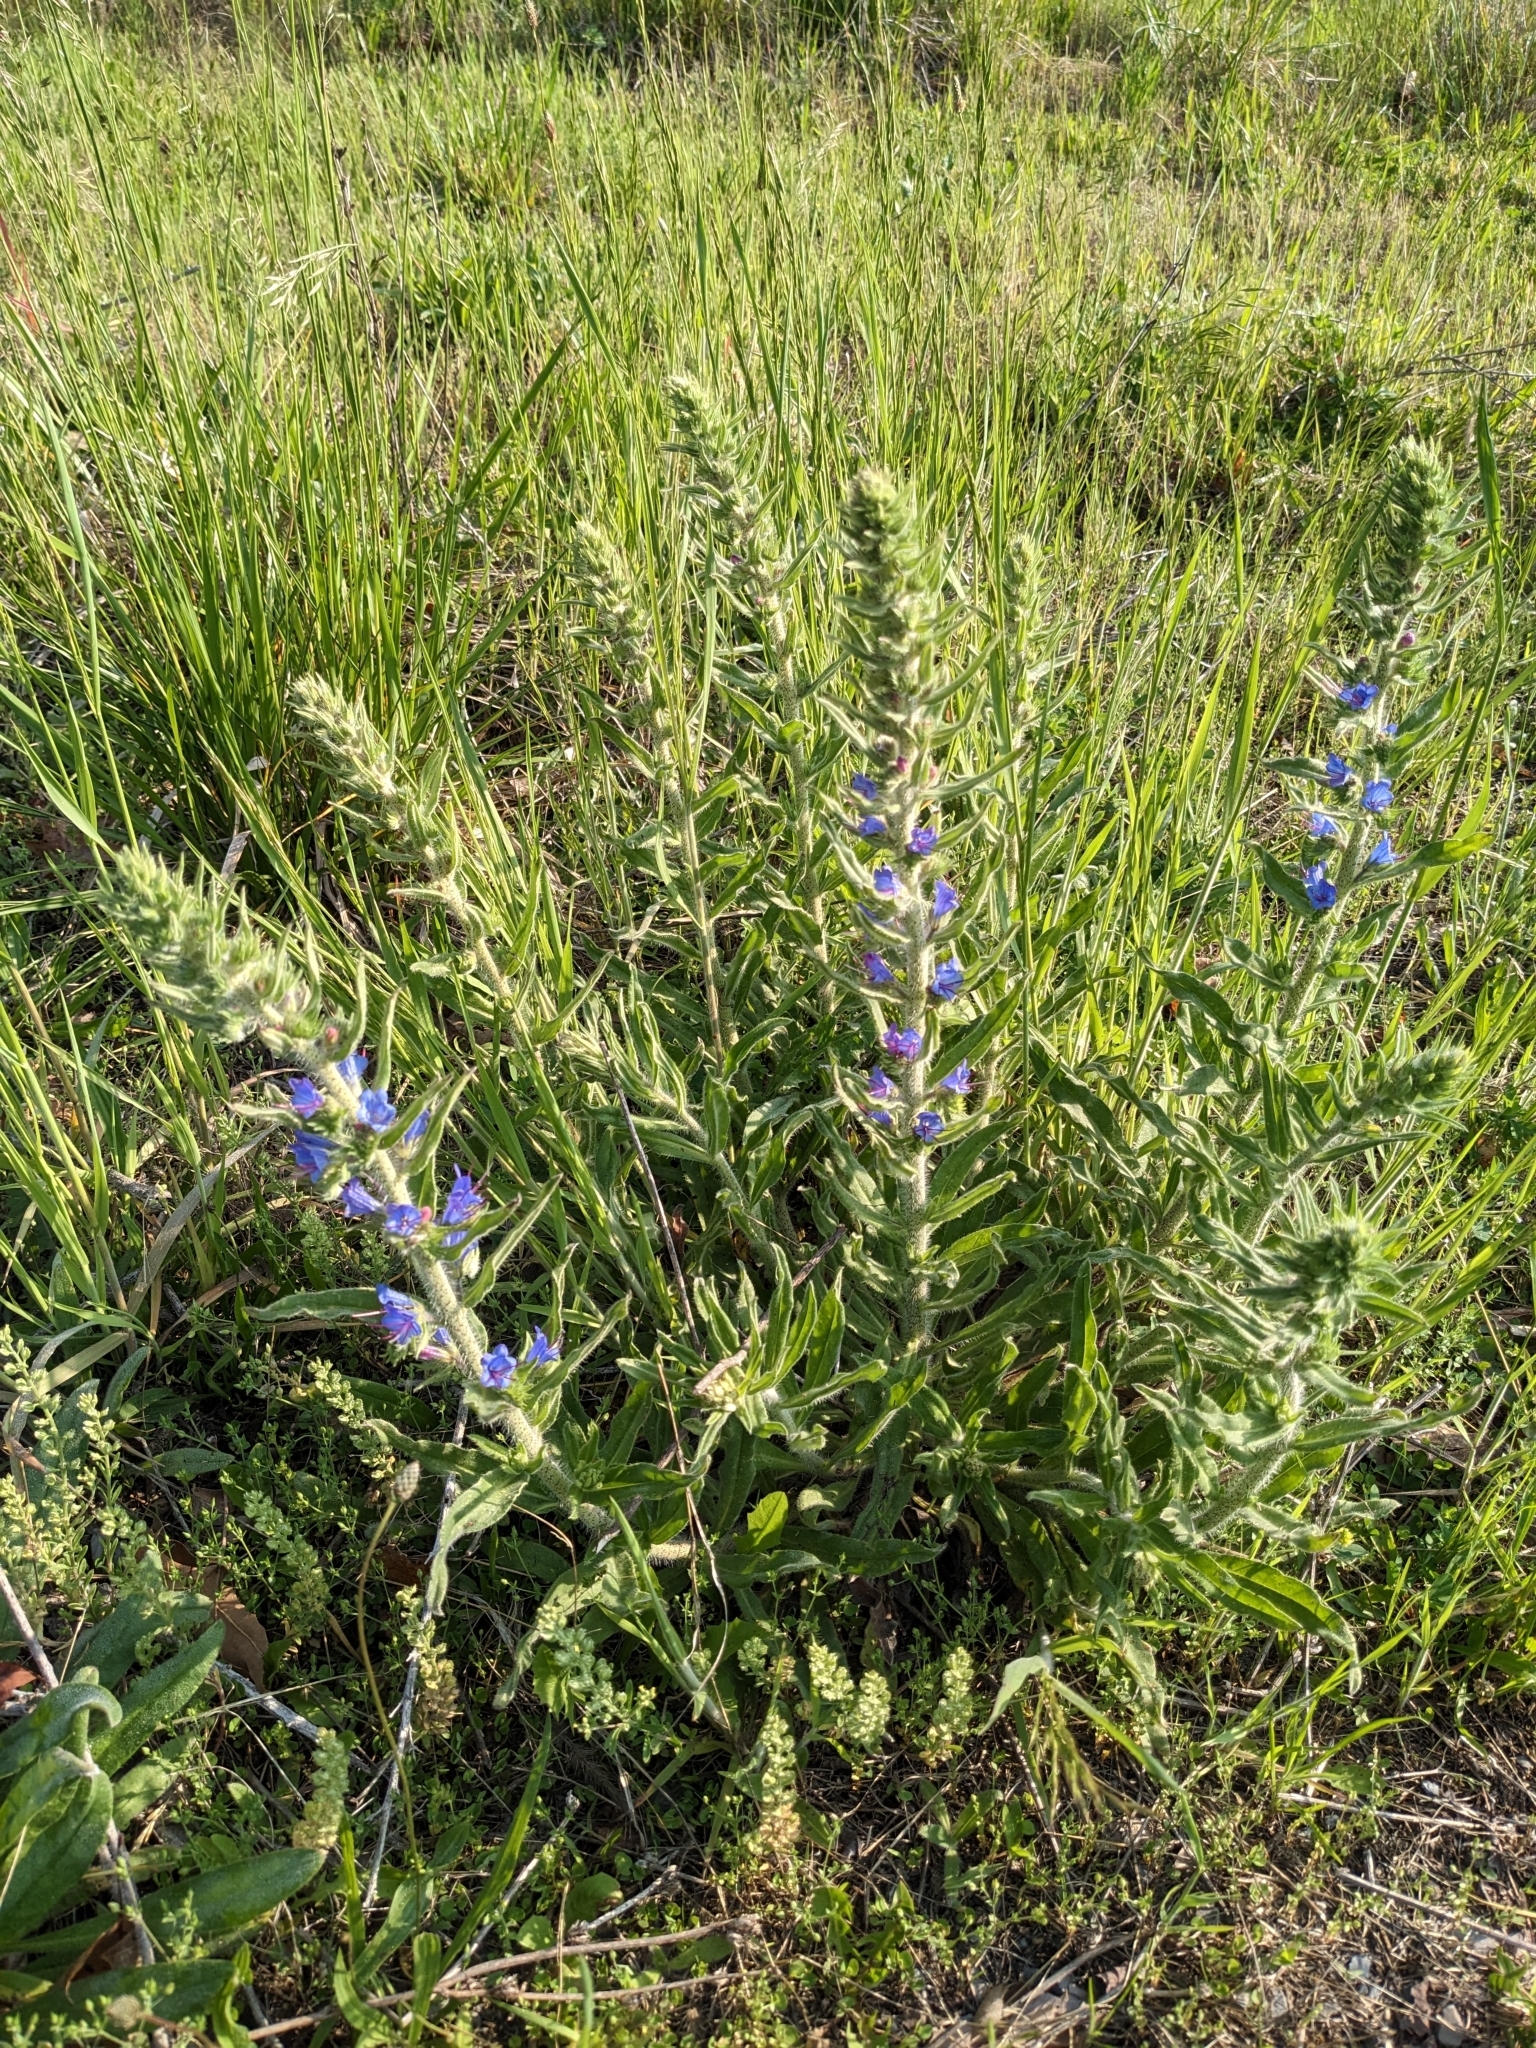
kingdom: Plantae
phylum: Tracheophyta
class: Magnoliopsida
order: Boraginales
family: Boraginaceae
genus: Echium
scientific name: Echium vulgare
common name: Common viper's bugloss
